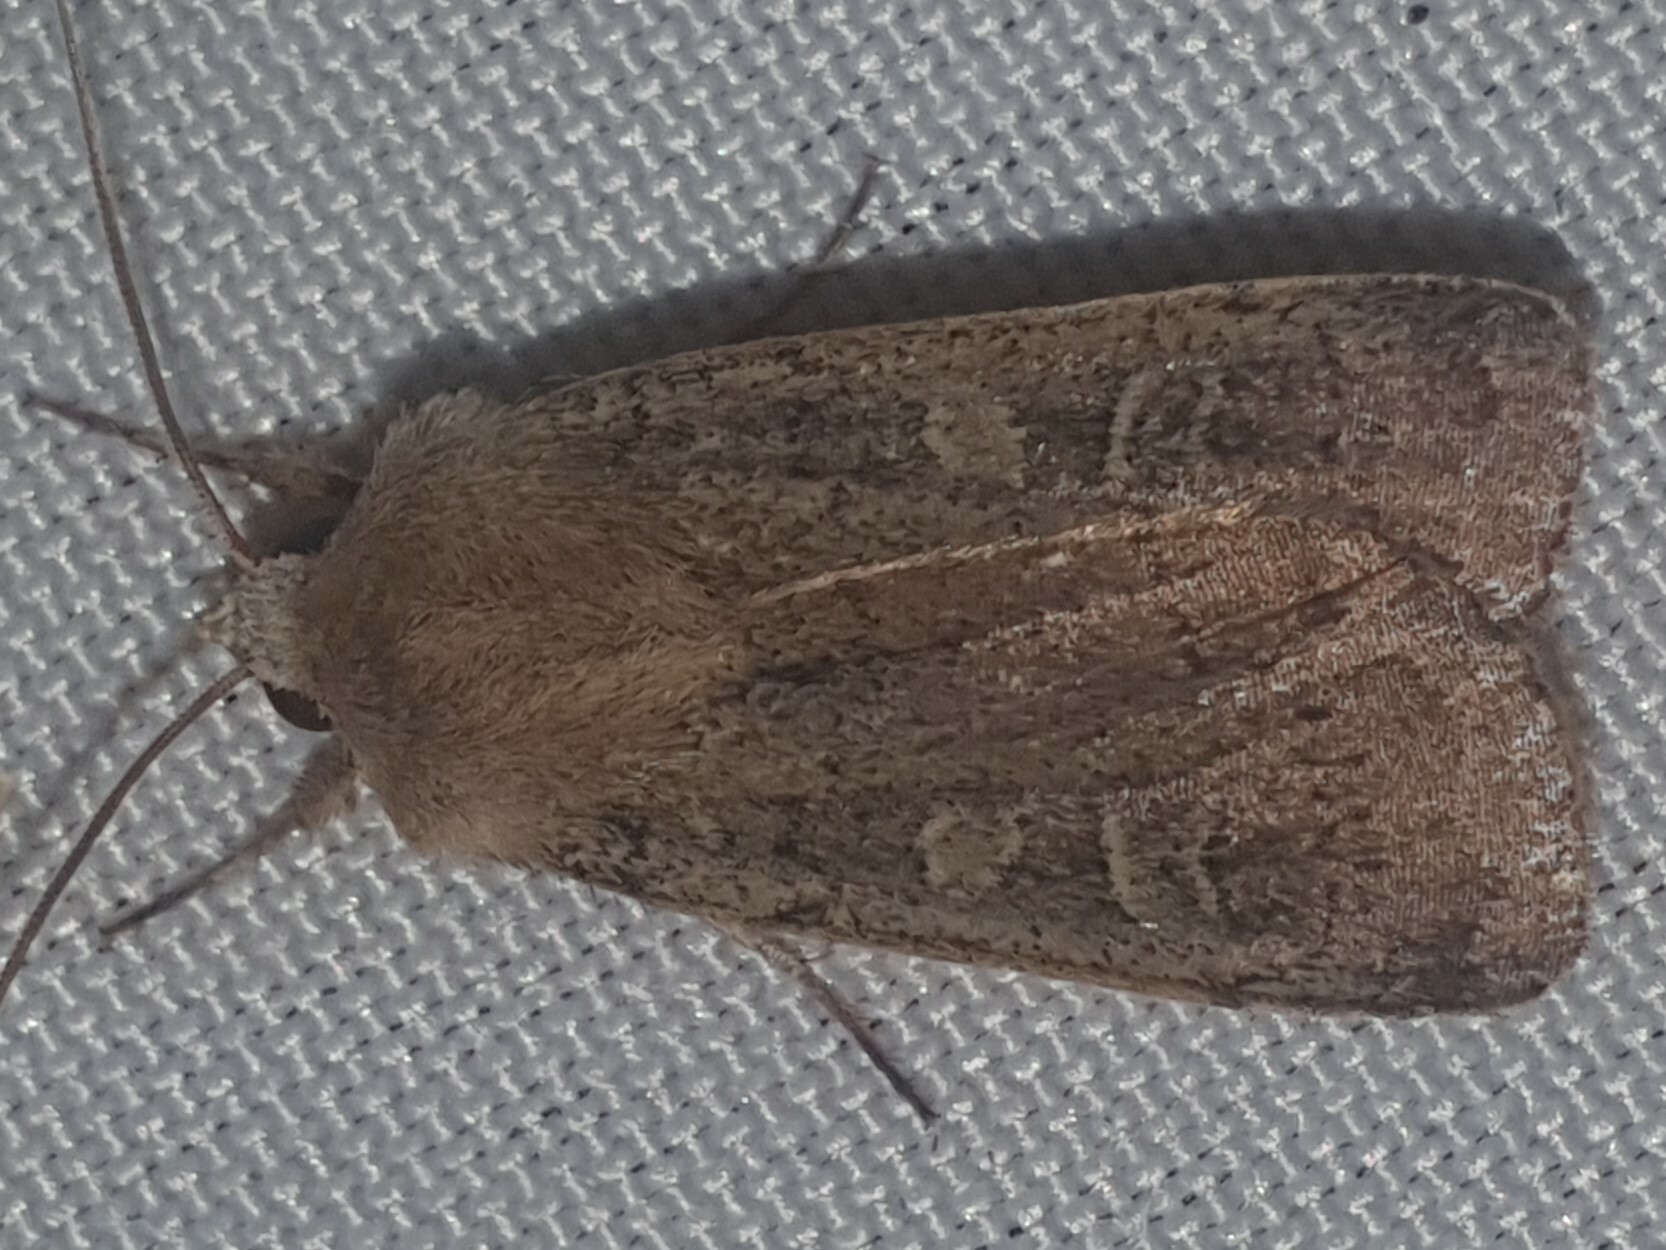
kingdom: Animalia
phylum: Arthropoda
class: Insecta
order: Lepidoptera
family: Noctuidae
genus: Xestia
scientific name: Xestia xanthographa
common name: Square-spot rustic
